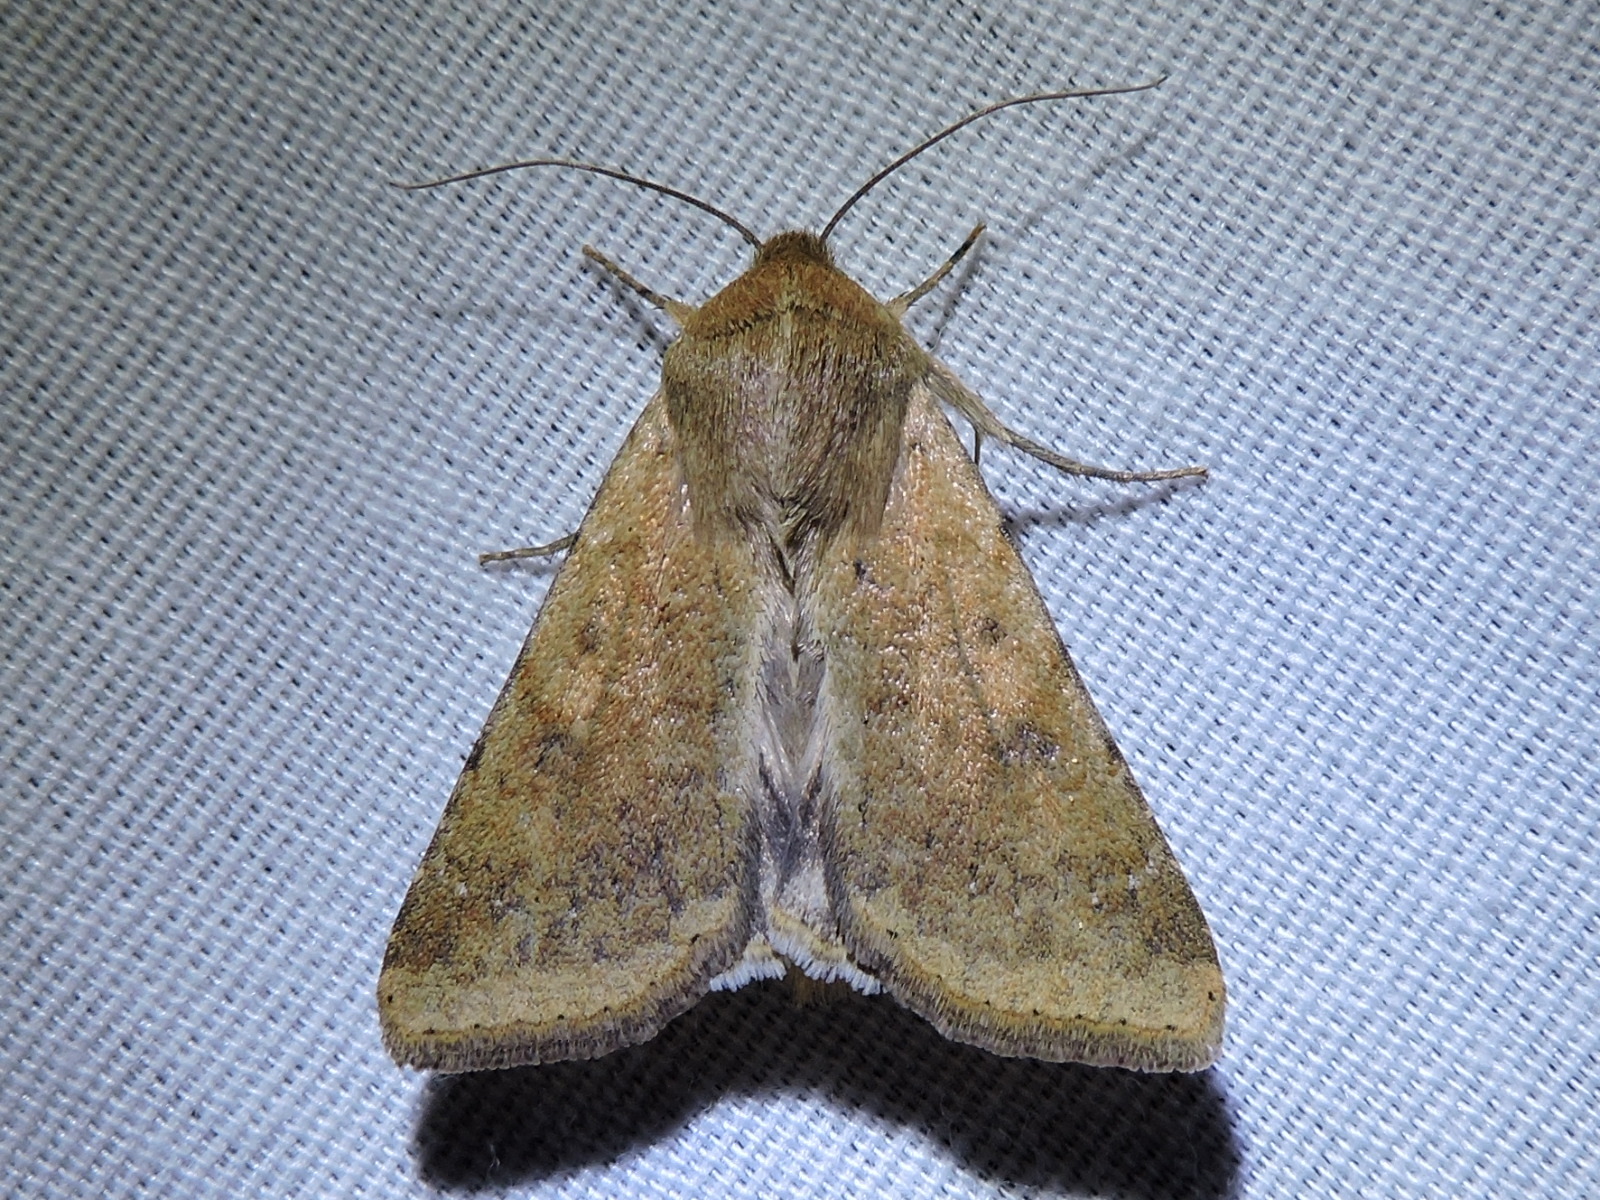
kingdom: Animalia
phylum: Arthropoda
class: Insecta
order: Lepidoptera
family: Noctuidae
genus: Helicoverpa
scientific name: Helicoverpa zea
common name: Bollworm
